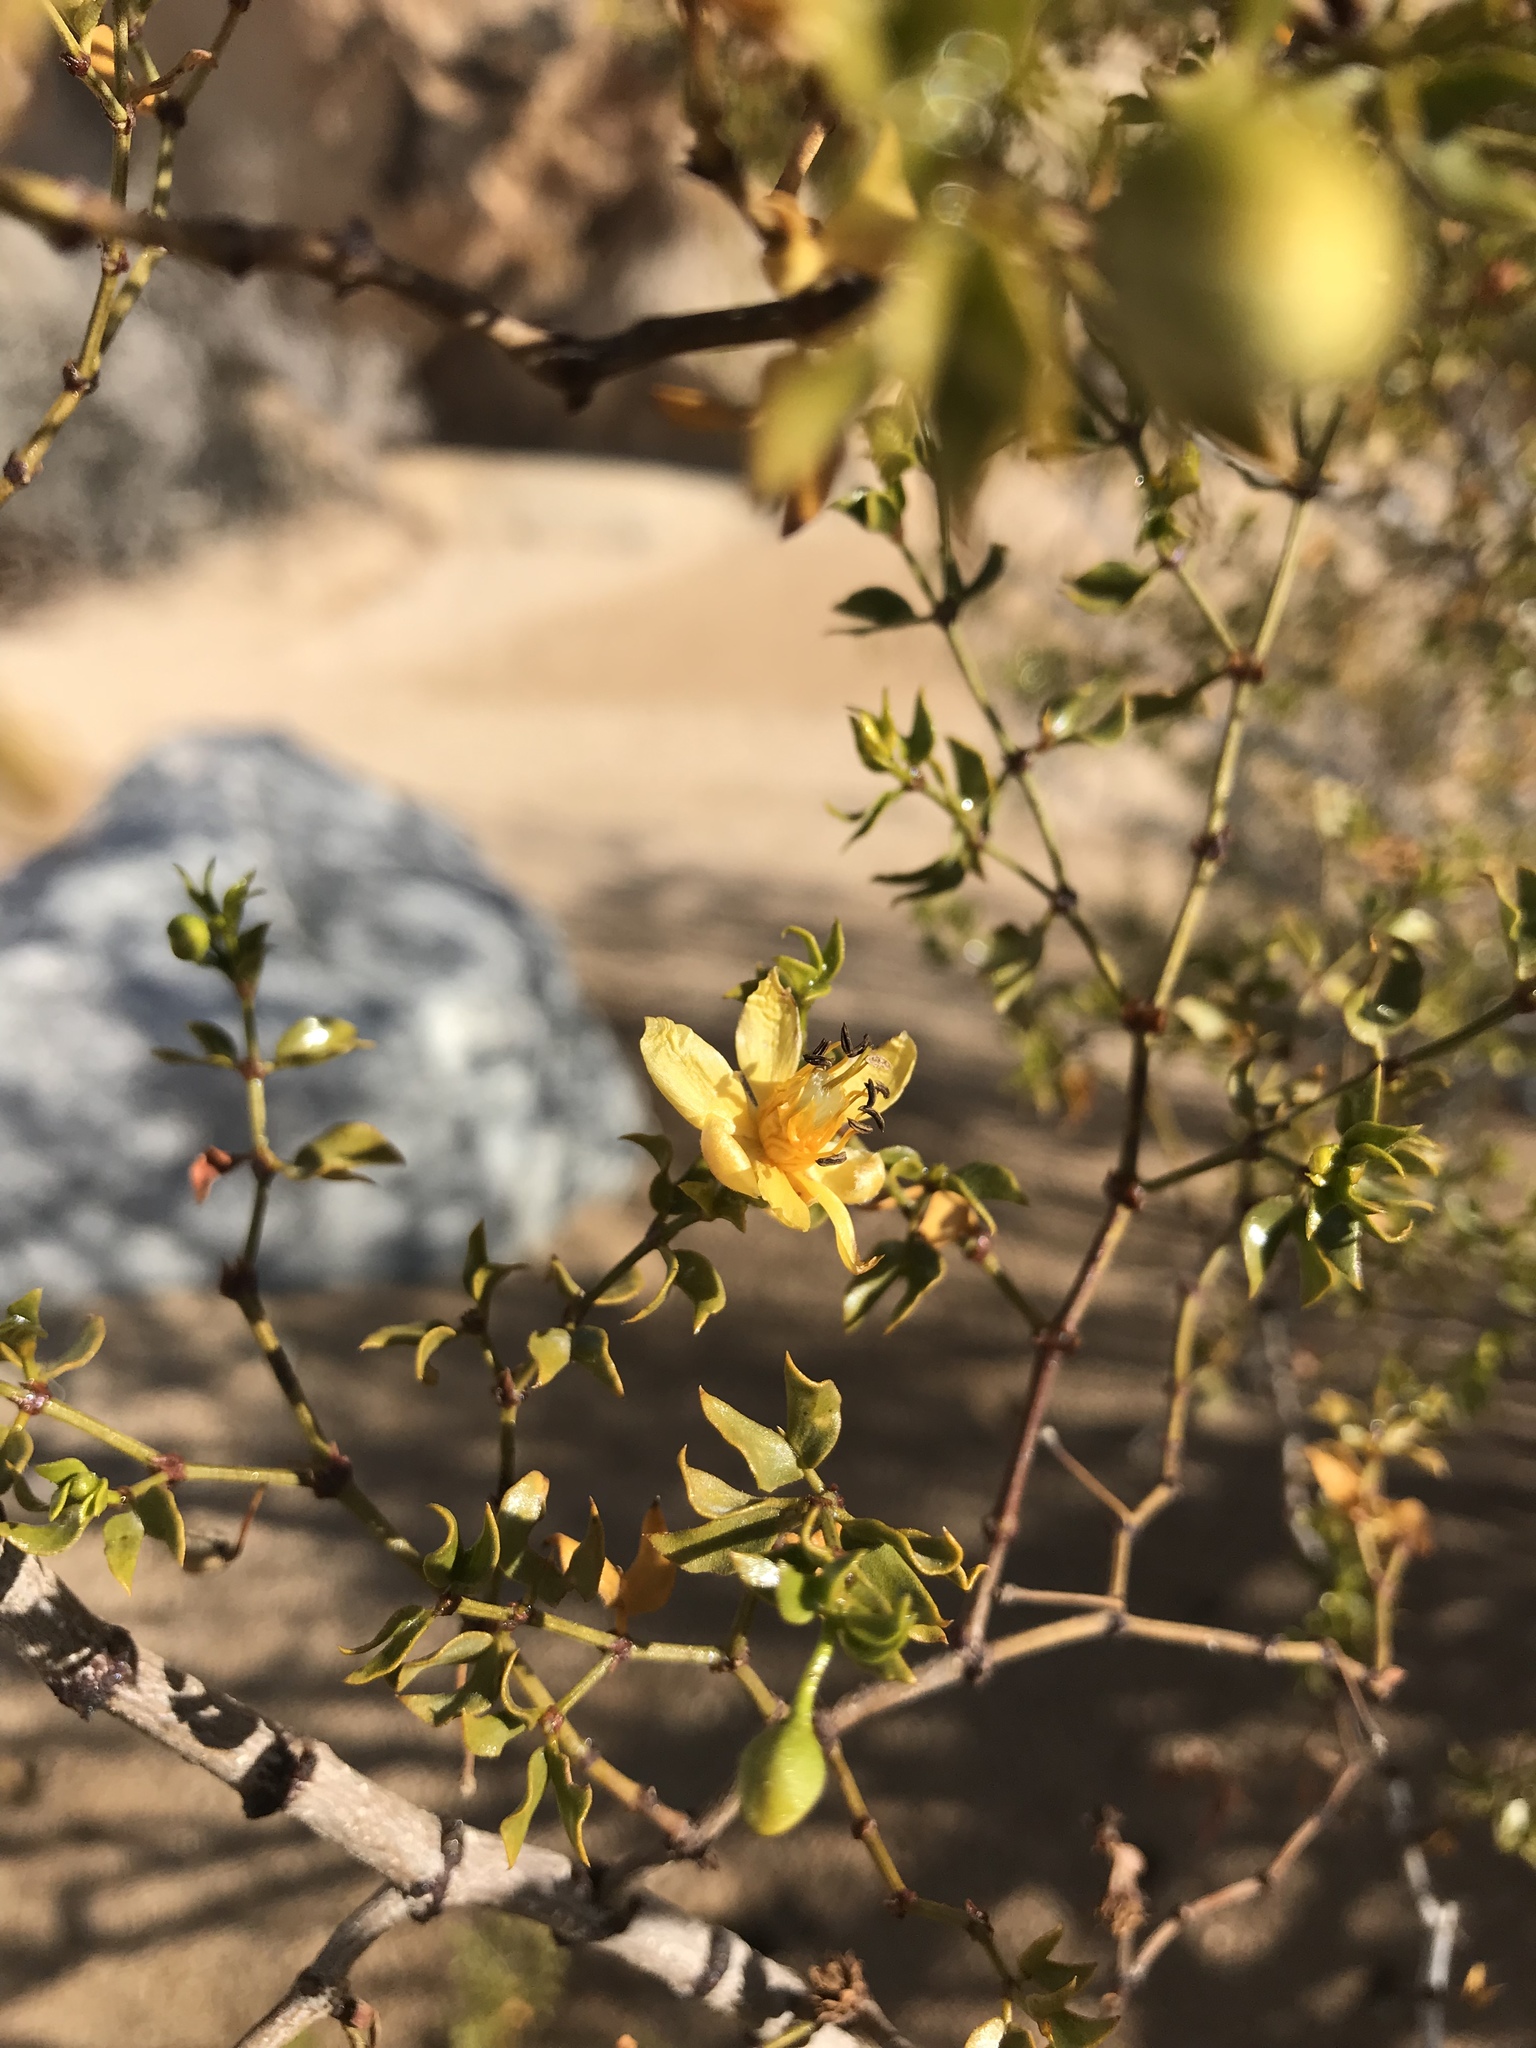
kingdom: Plantae
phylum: Tracheophyta
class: Magnoliopsida
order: Zygophyllales
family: Zygophyllaceae
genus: Larrea
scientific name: Larrea tridentata
